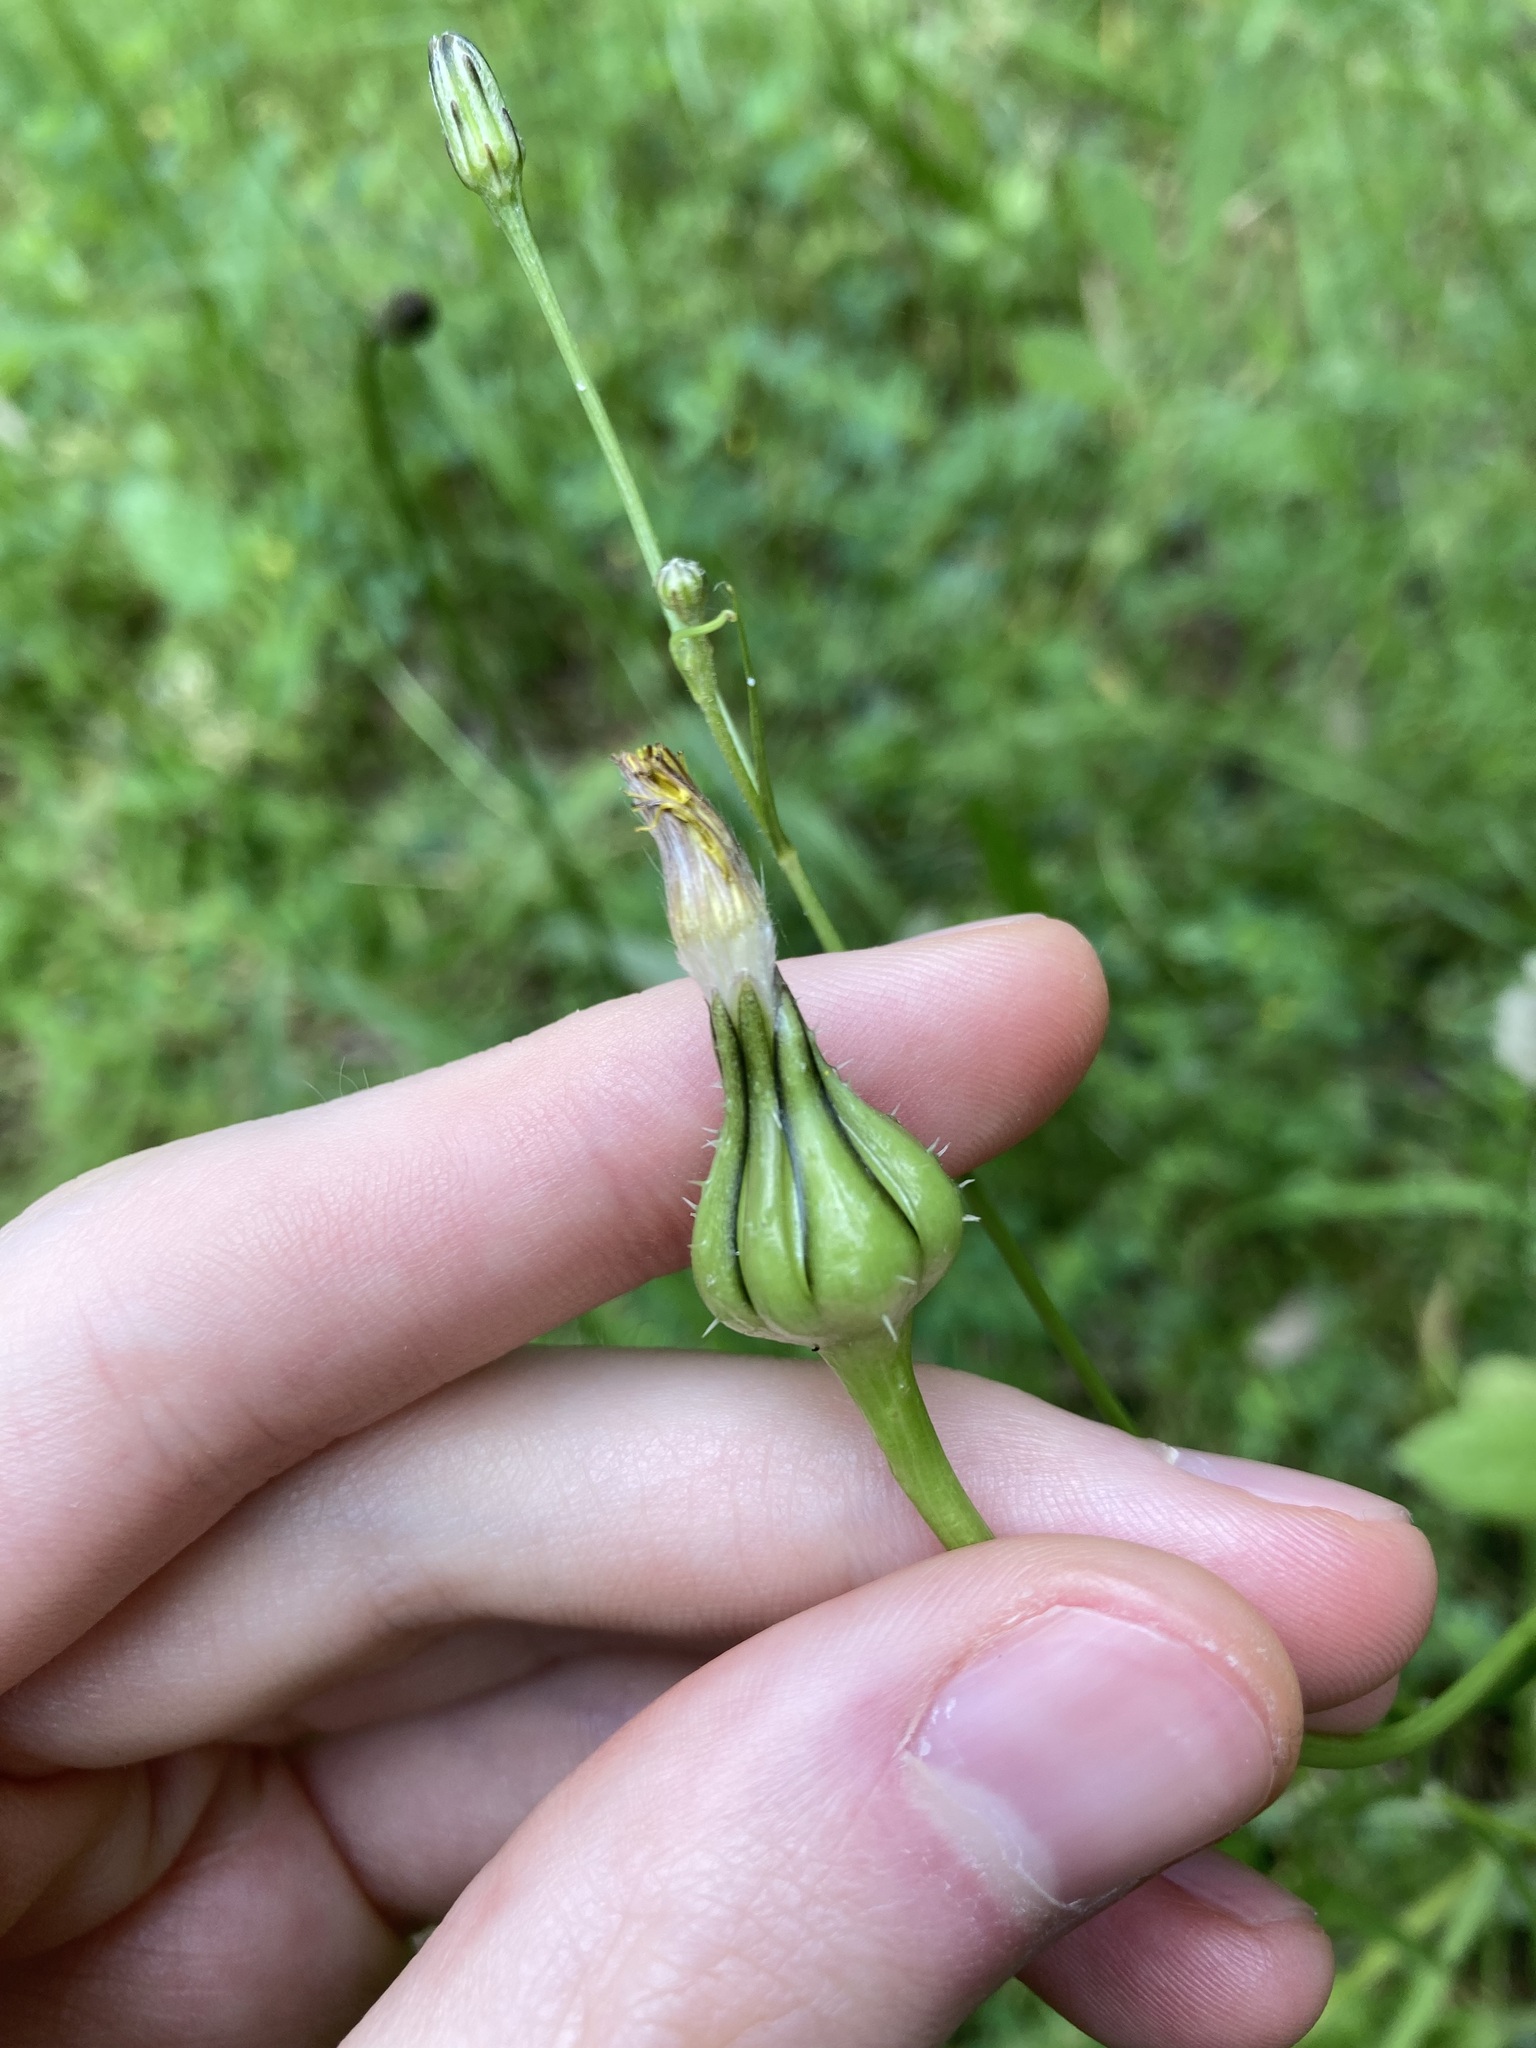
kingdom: Plantae
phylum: Tracheophyta
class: Magnoliopsida
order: Asterales
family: Asteraceae
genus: Urospermum
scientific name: Urospermum picroides
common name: False hawkbit
